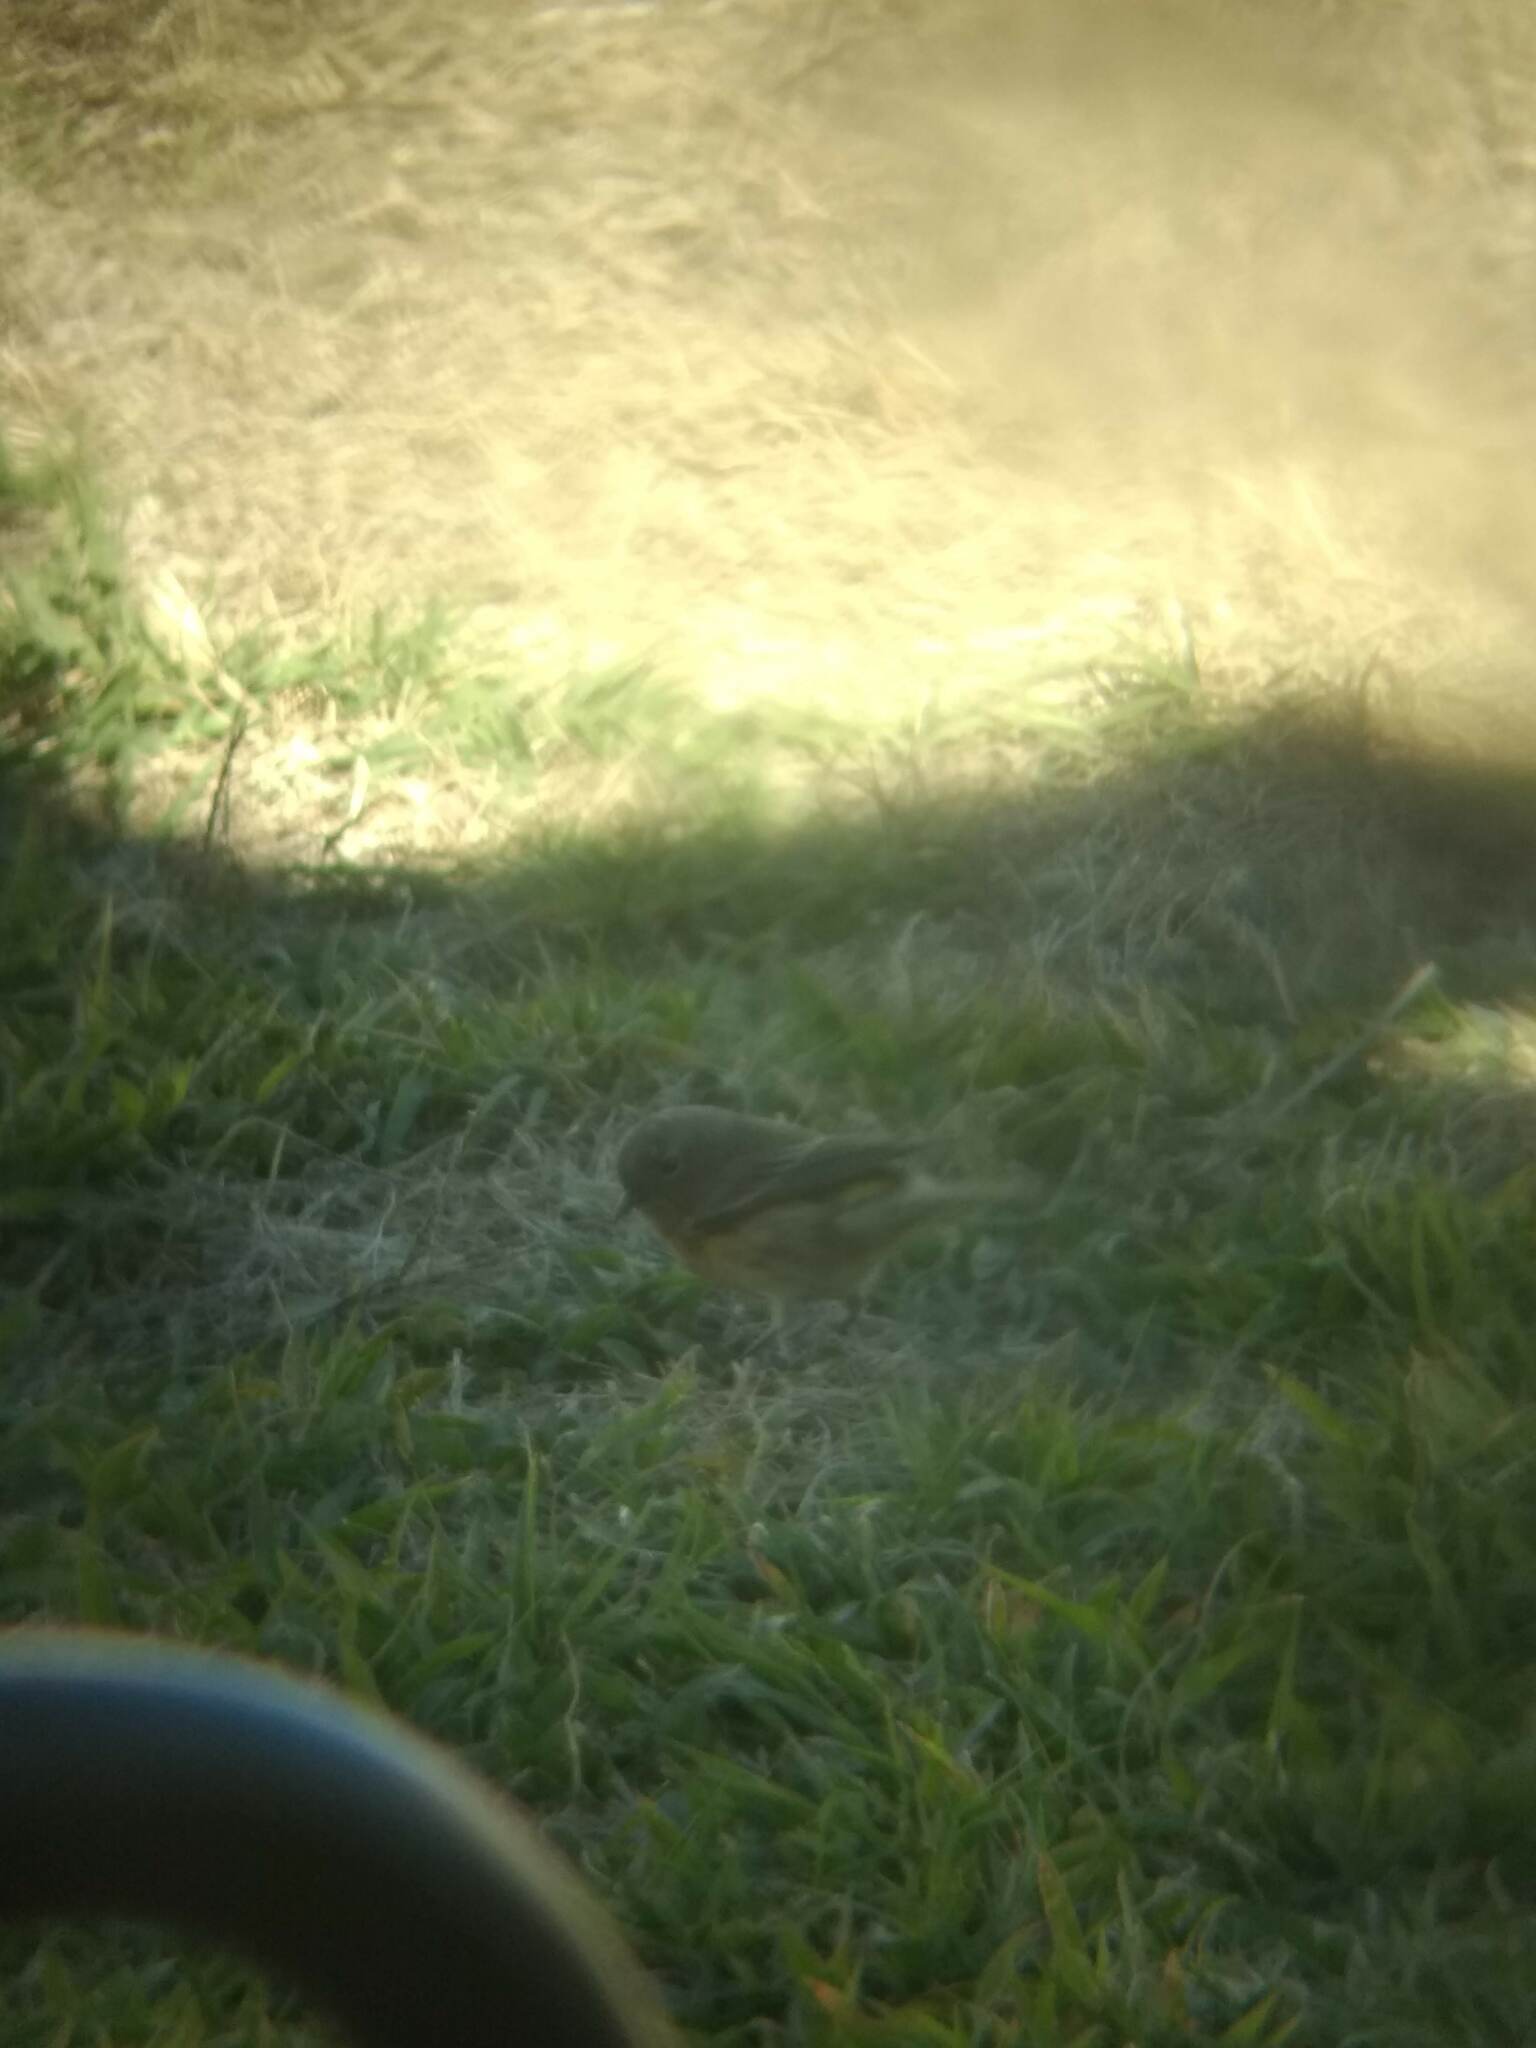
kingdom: Animalia
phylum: Chordata
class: Aves
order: Passeriformes
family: Regulidae
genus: Regulus
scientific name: Regulus calendula
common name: Ruby-crowned kinglet
